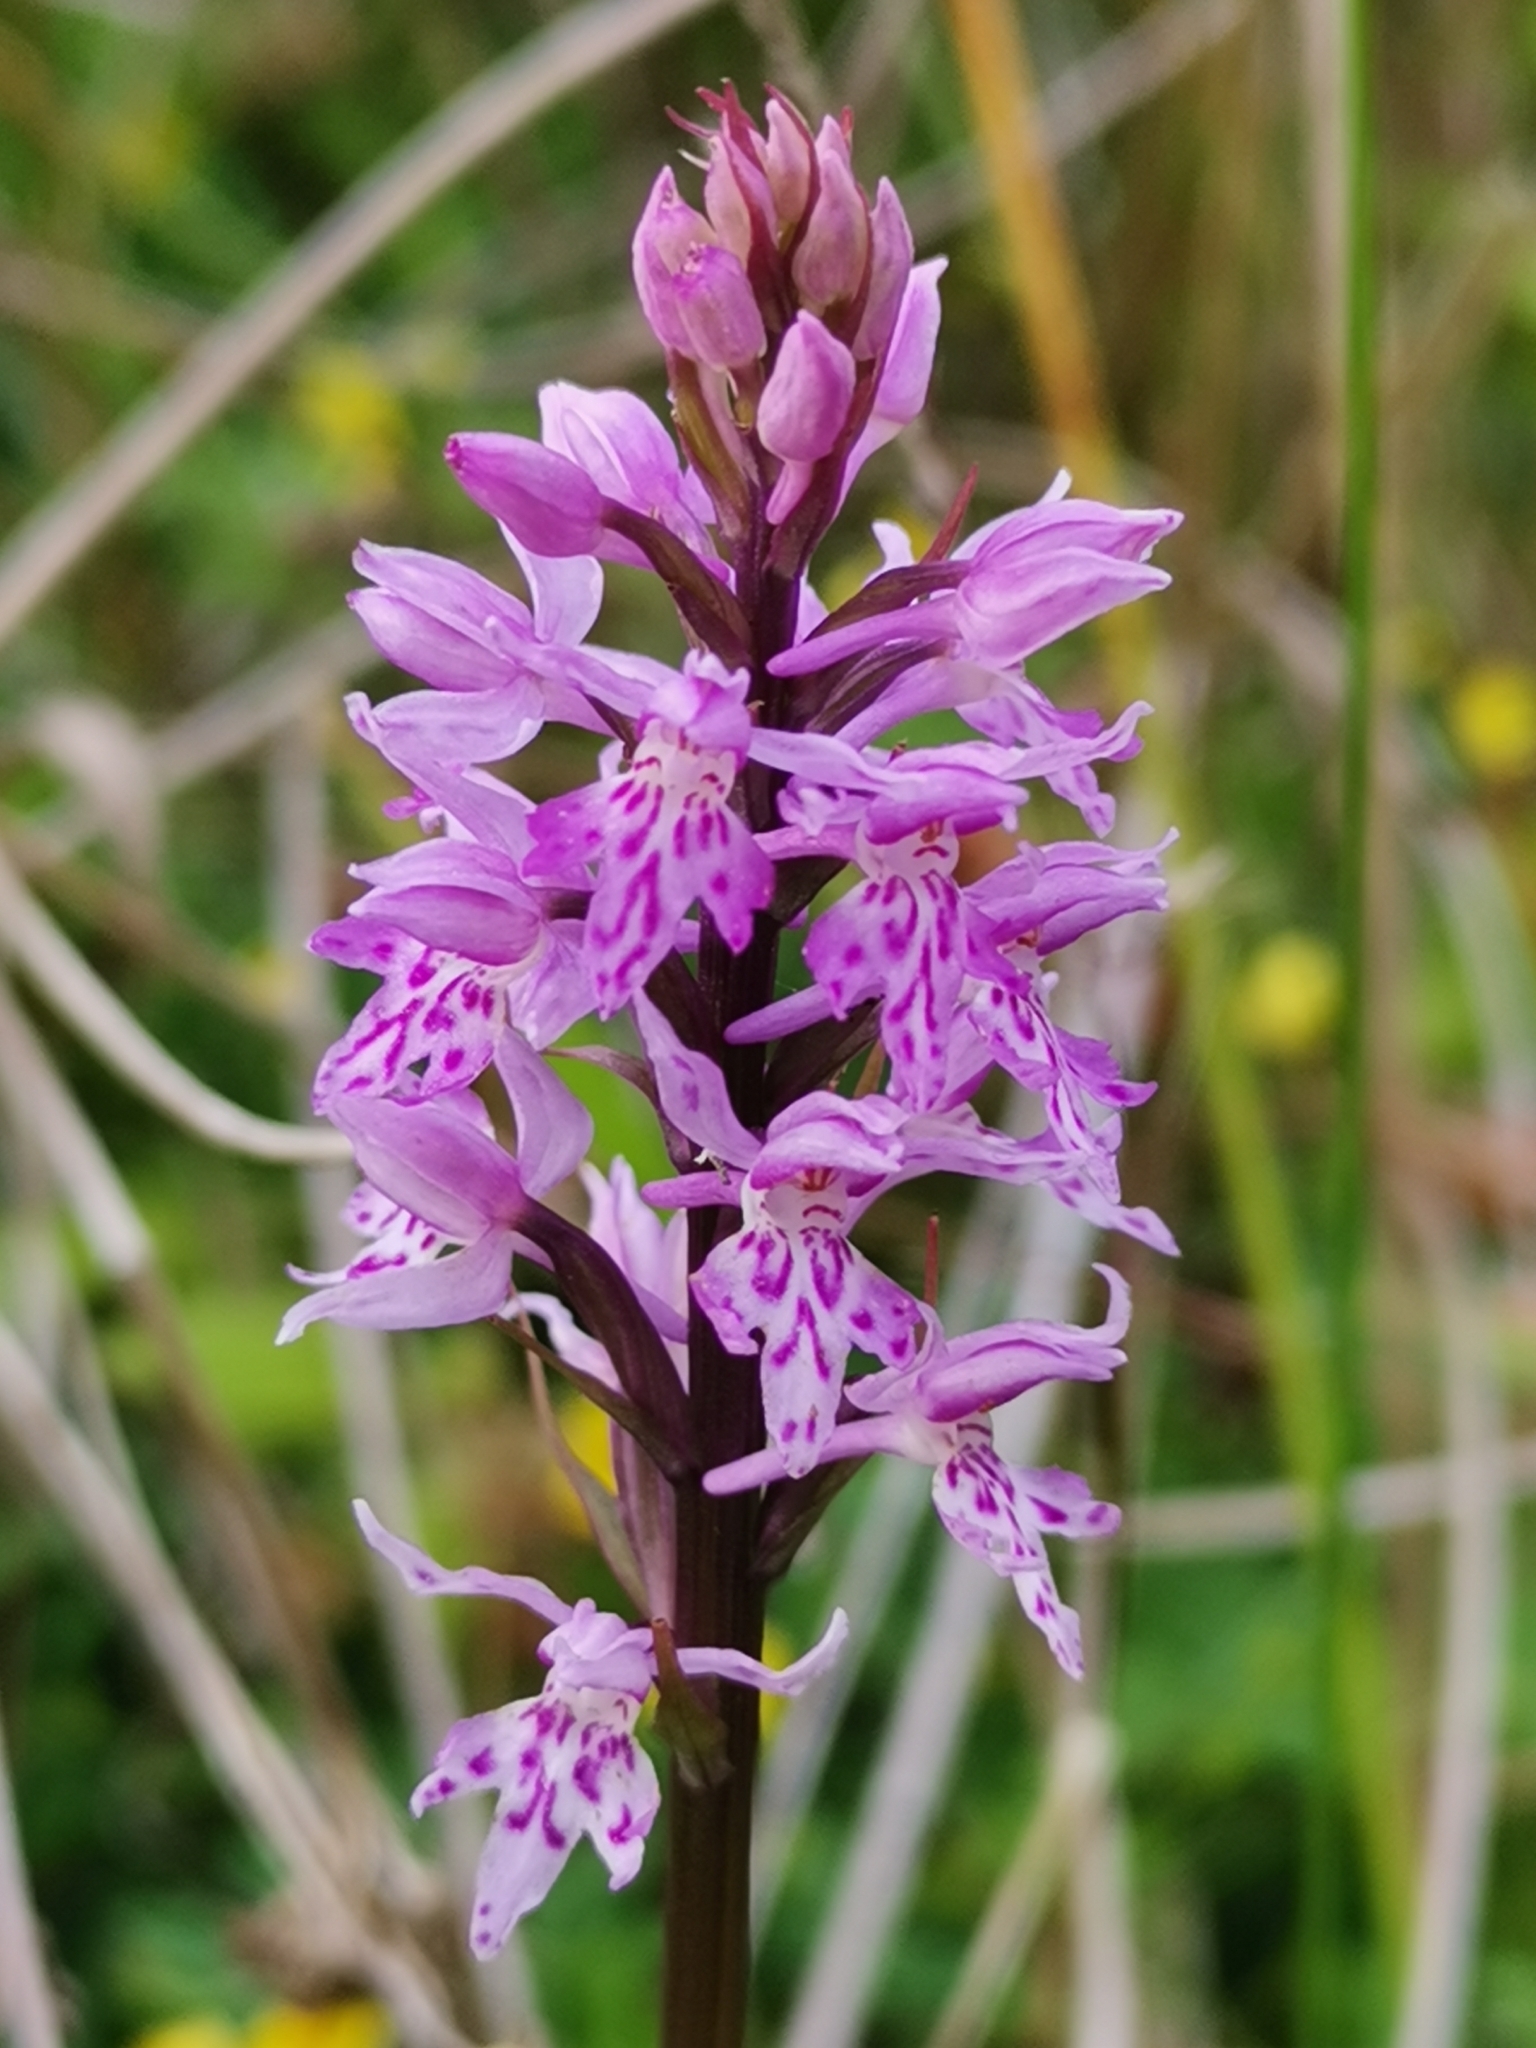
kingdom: Plantae
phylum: Tracheophyta
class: Liliopsida
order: Asparagales
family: Orchidaceae
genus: Dactylorhiza
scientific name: Dactylorhiza maculata
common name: Heath spotted-orchid
